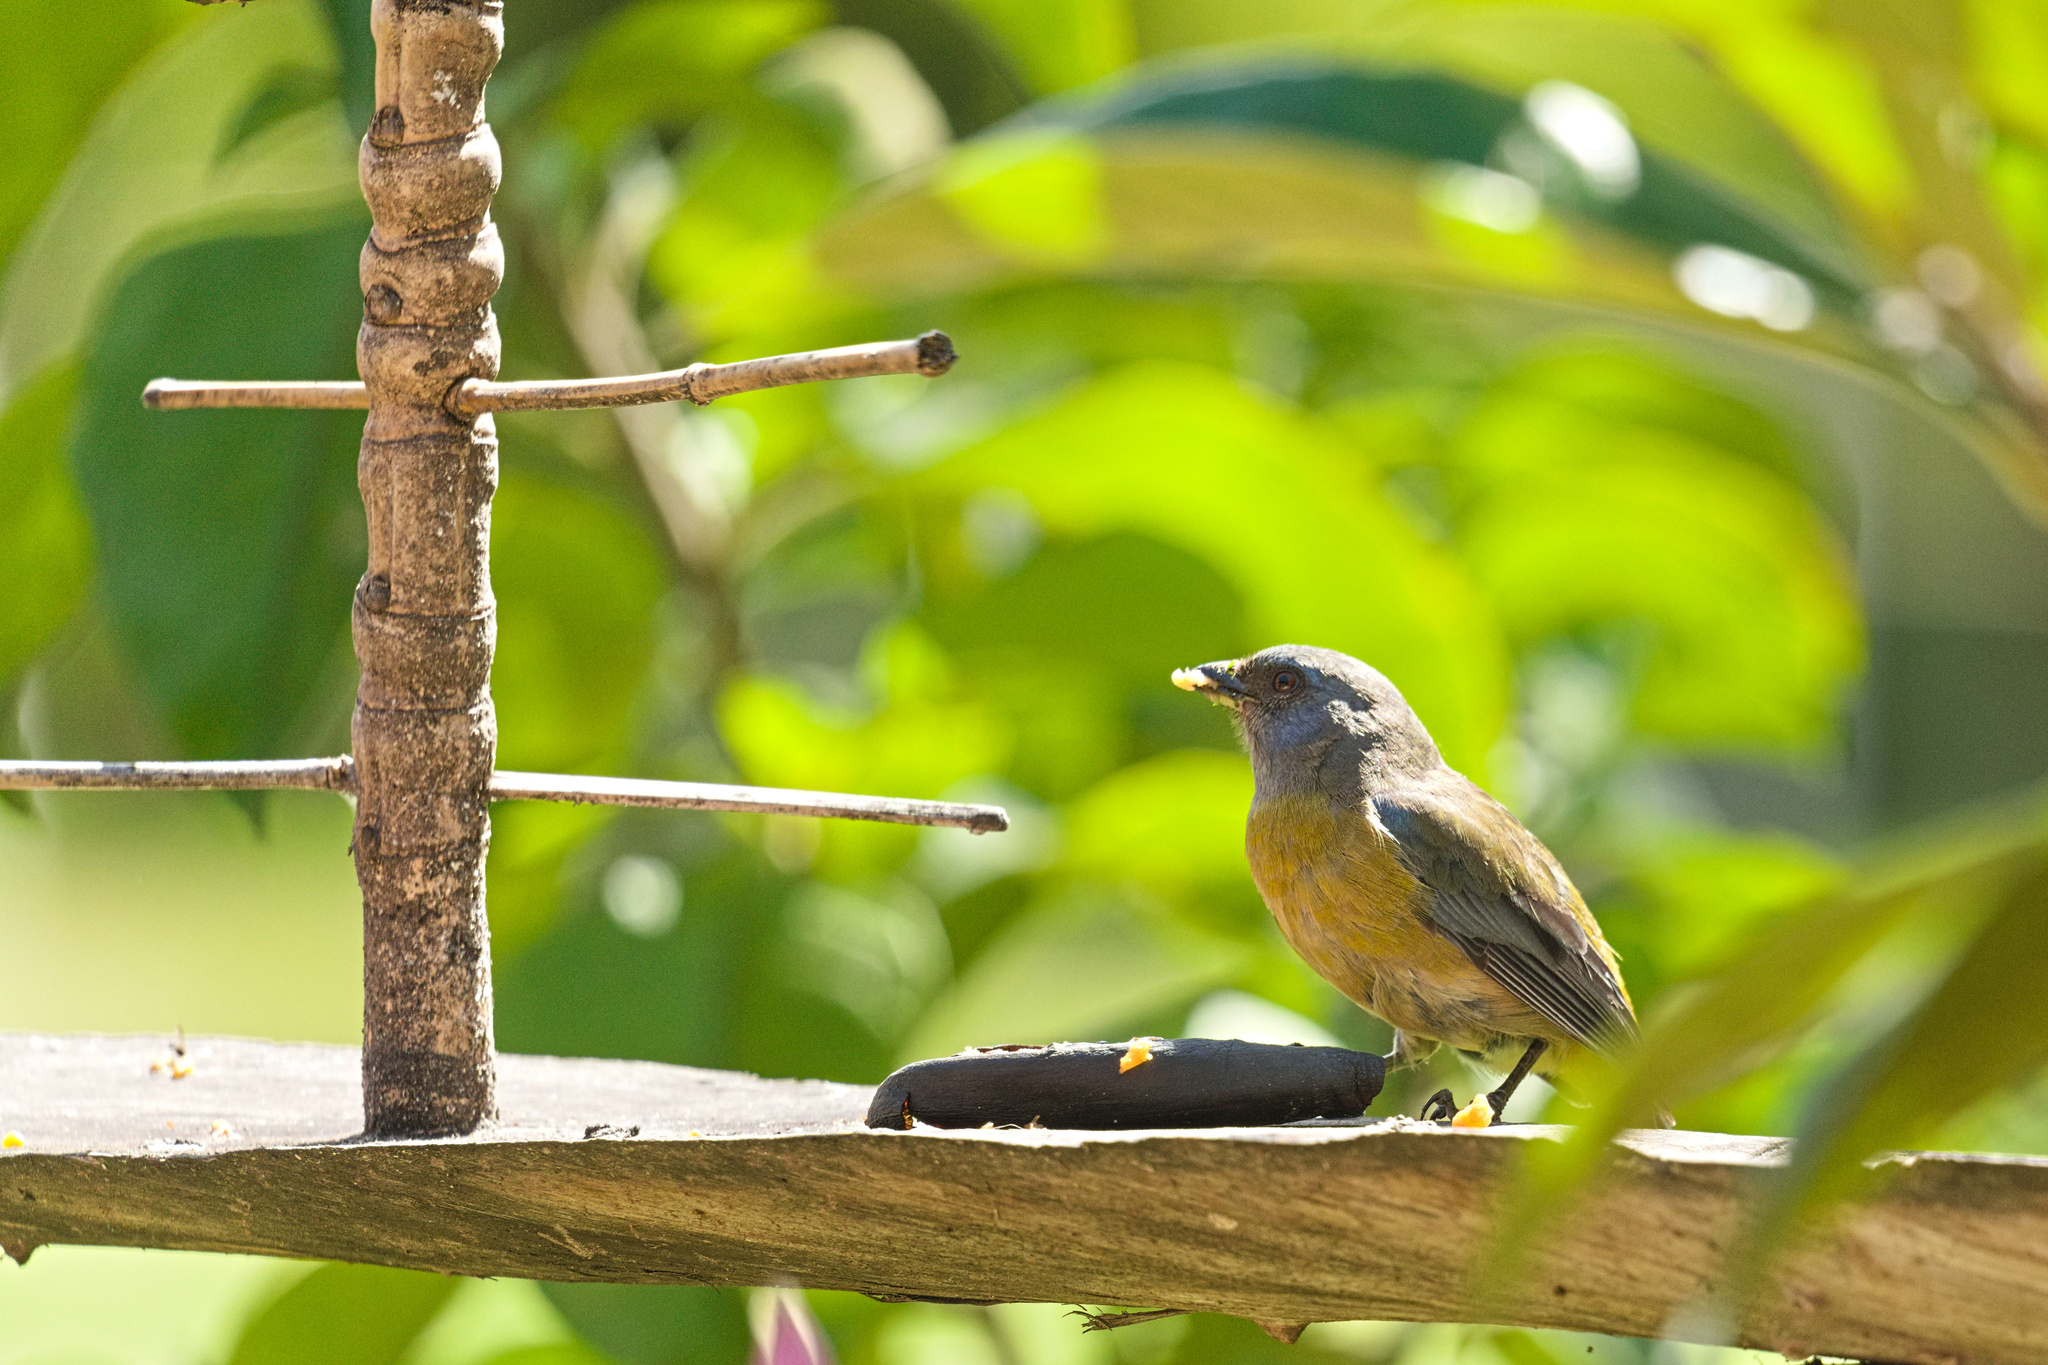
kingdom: Animalia
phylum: Chordata
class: Aves
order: Passeriformes
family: Thraupidae
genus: Rauenia
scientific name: Rauenia bonariensis
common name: Blue-and-yellow tanager
